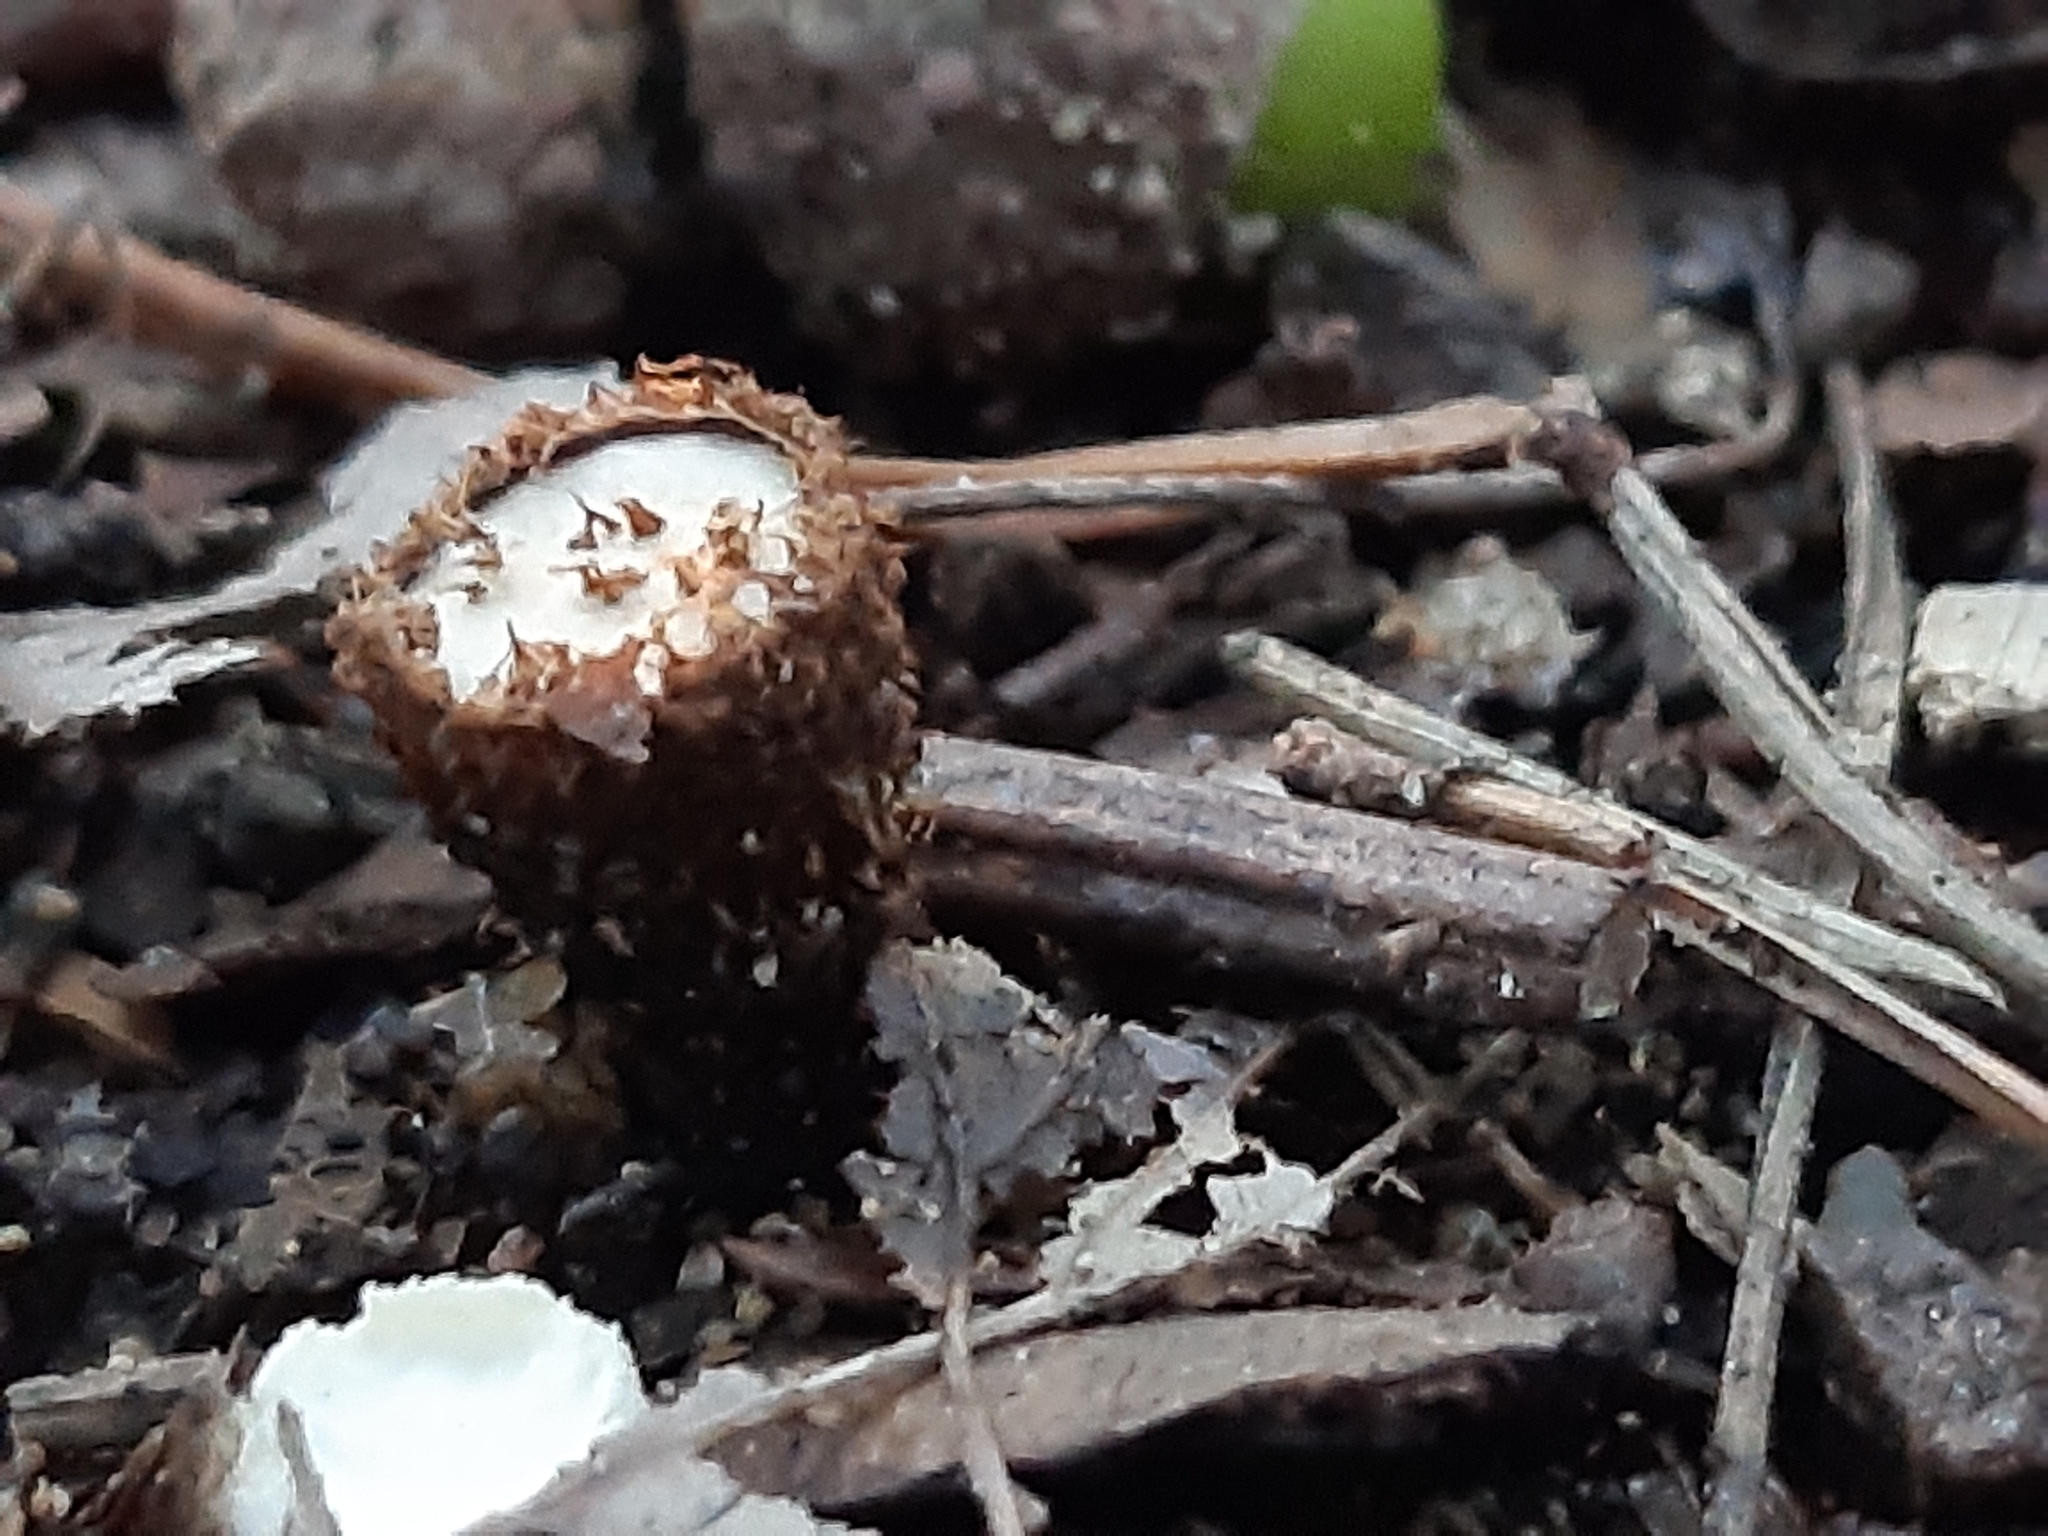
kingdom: Fungi
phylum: Basidiomycota
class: Agaricomycetes
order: Agaricales
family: Agaricaceae
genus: Cyathus
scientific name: Cyathus striatus
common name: Fluted bird's nest
